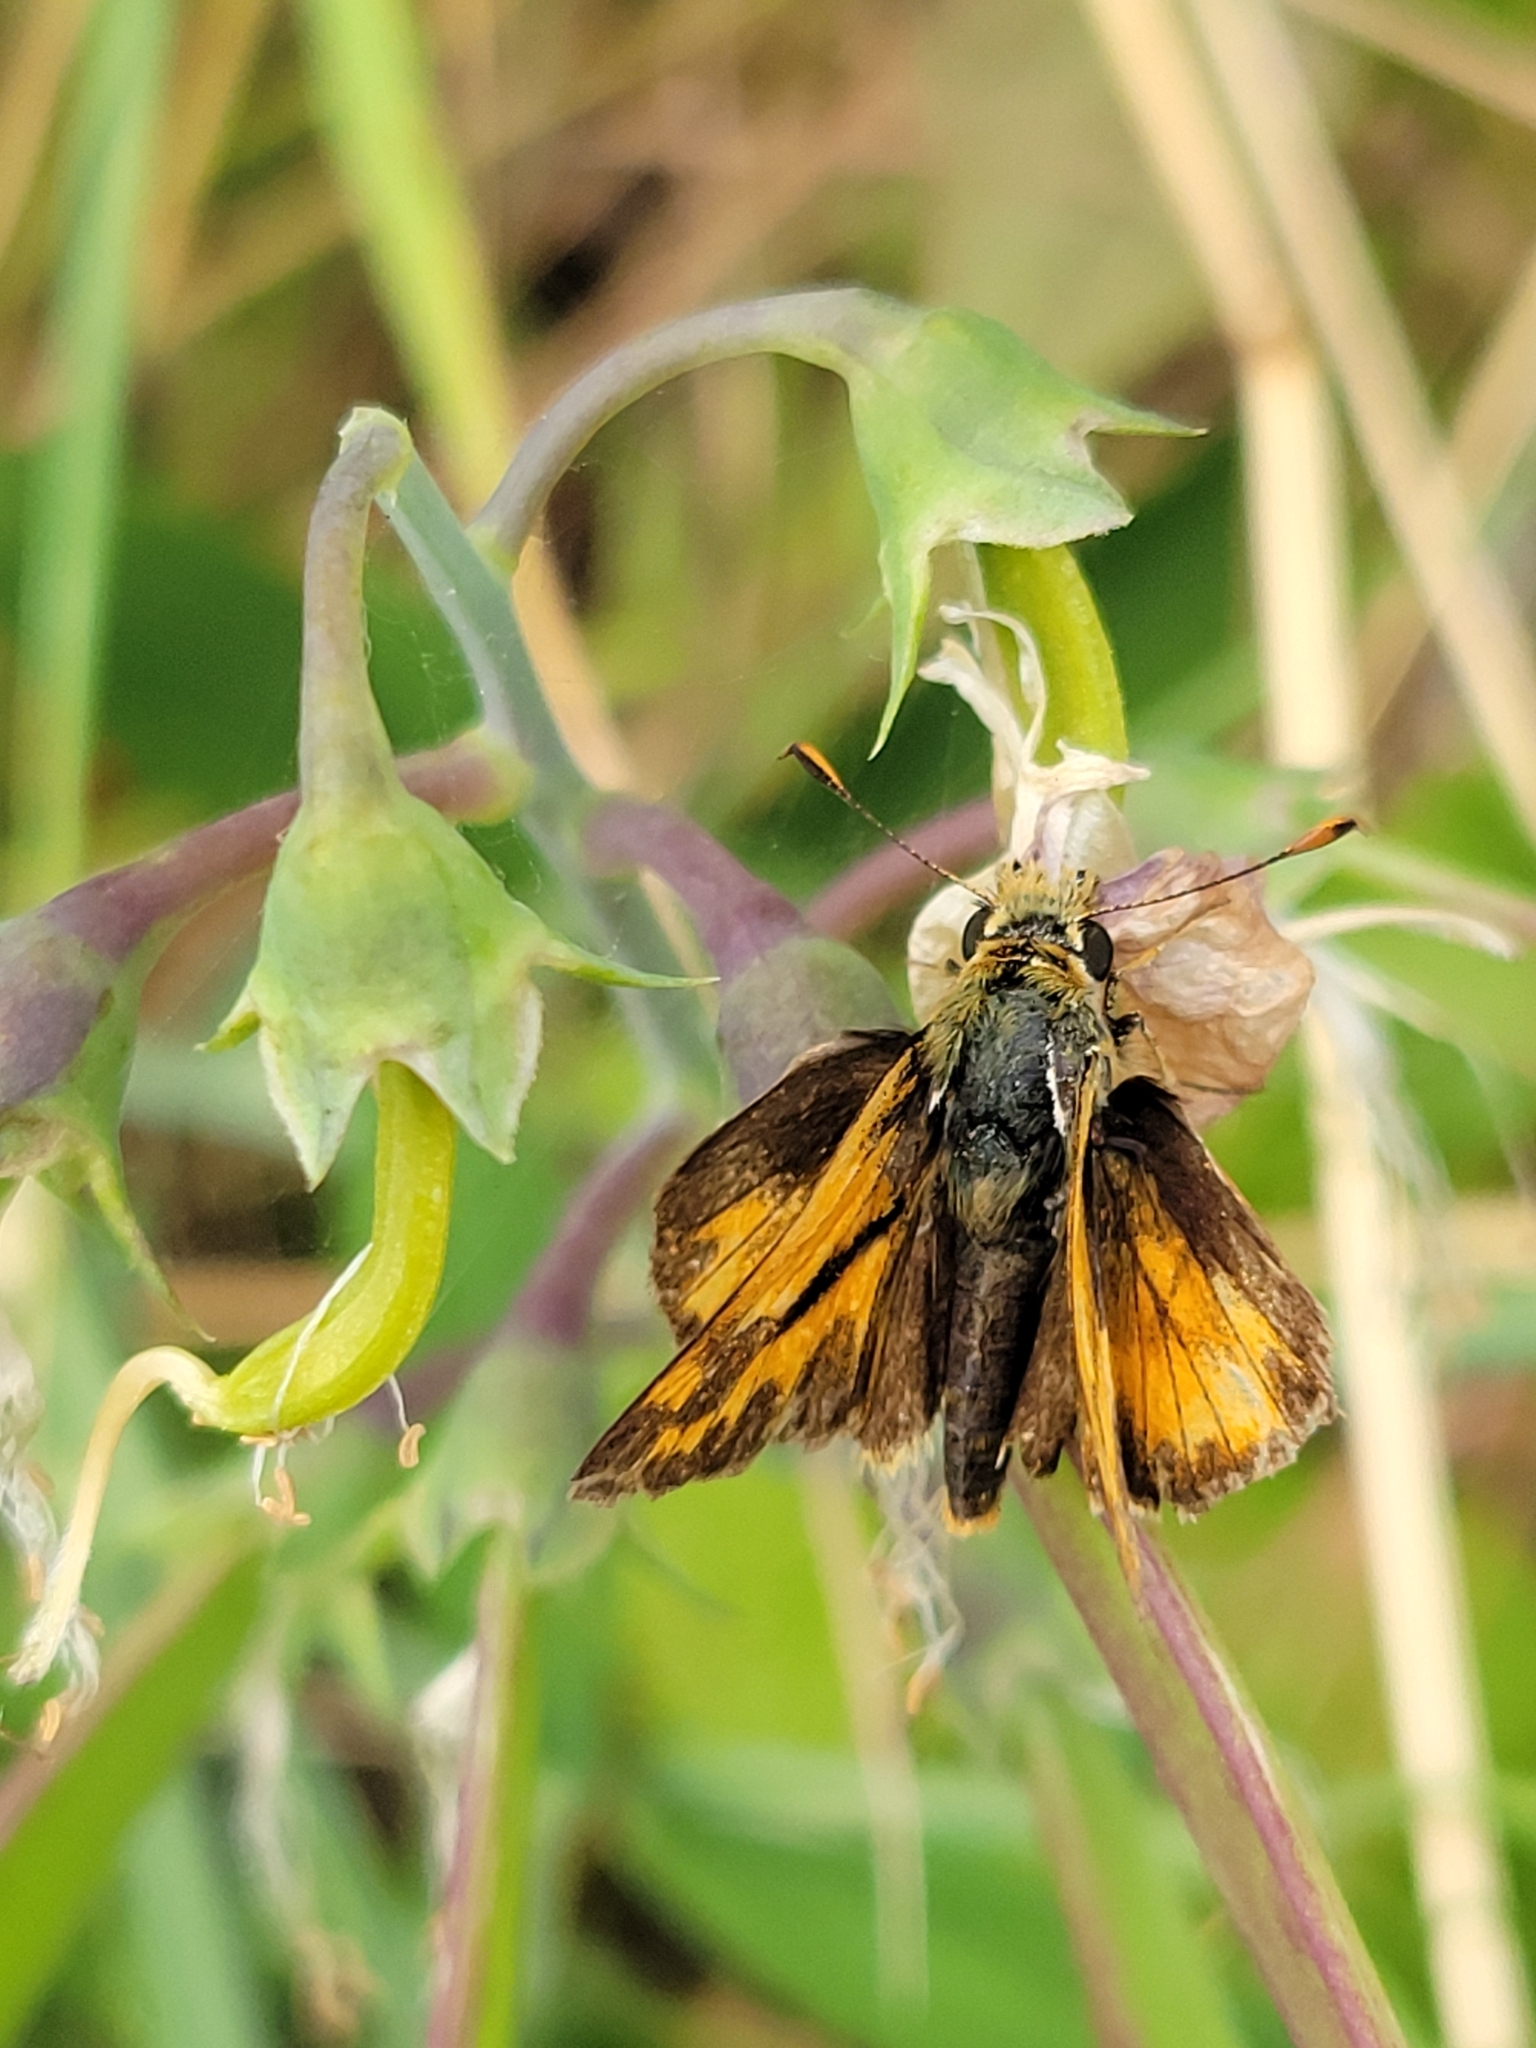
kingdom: Animalia
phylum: Arthropoda
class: Insecta
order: Lepidoptera
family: Hesperiidae
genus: Ochlodes
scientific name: Ochlodes sylvanoides
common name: Woodland skipper
